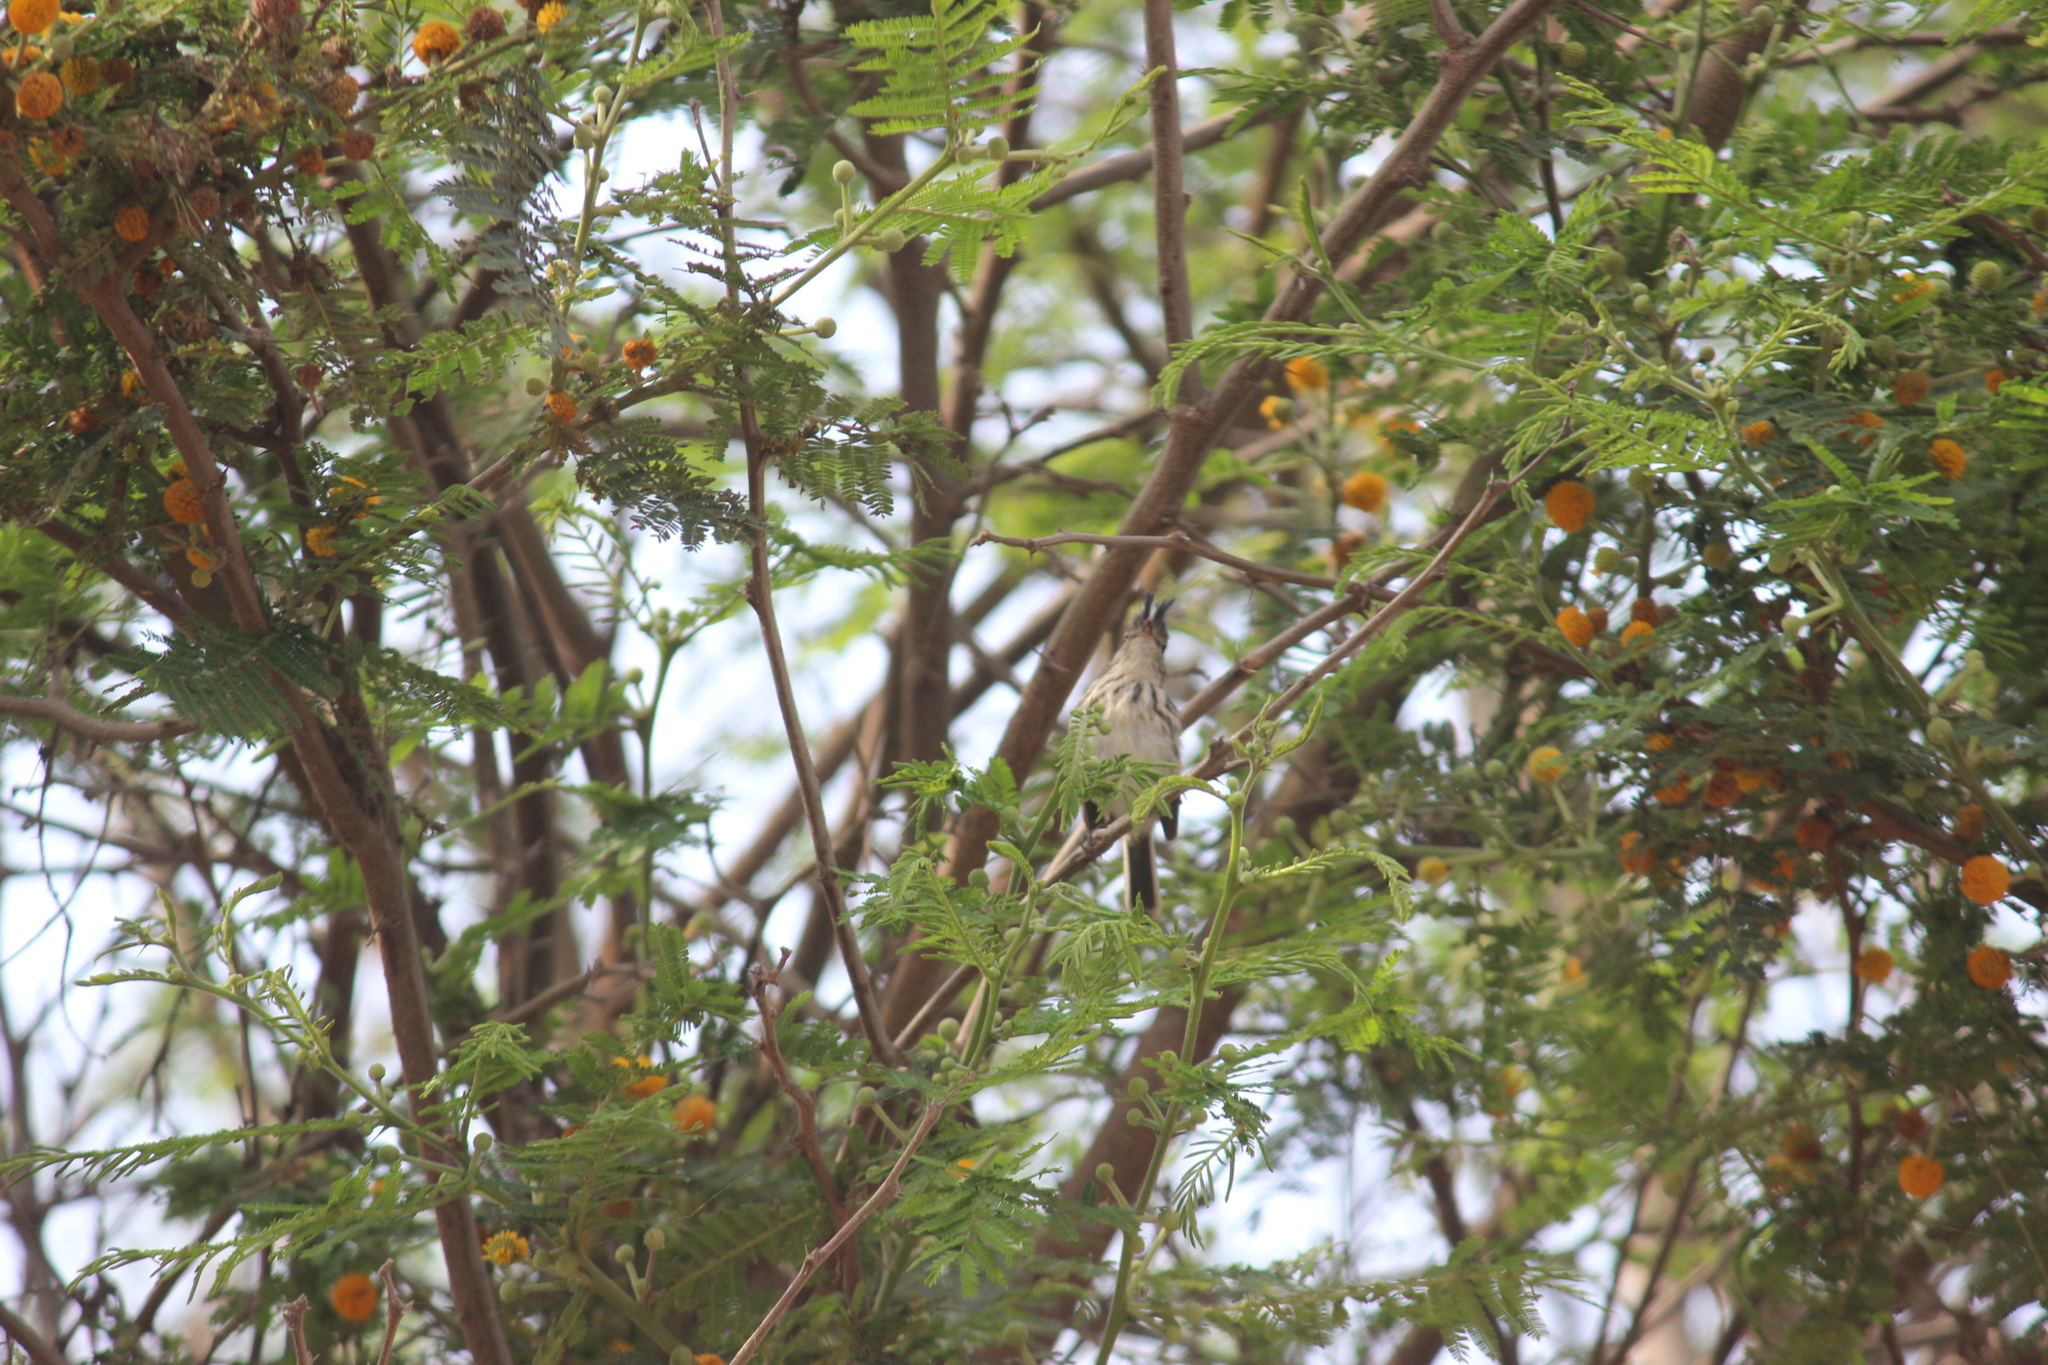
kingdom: Animalia
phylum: Chordata
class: Aves
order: Passeriformes
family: Tyrannidae
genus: Anairetes
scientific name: Anairetes reguloides
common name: Pied-crested tit-tyrant
